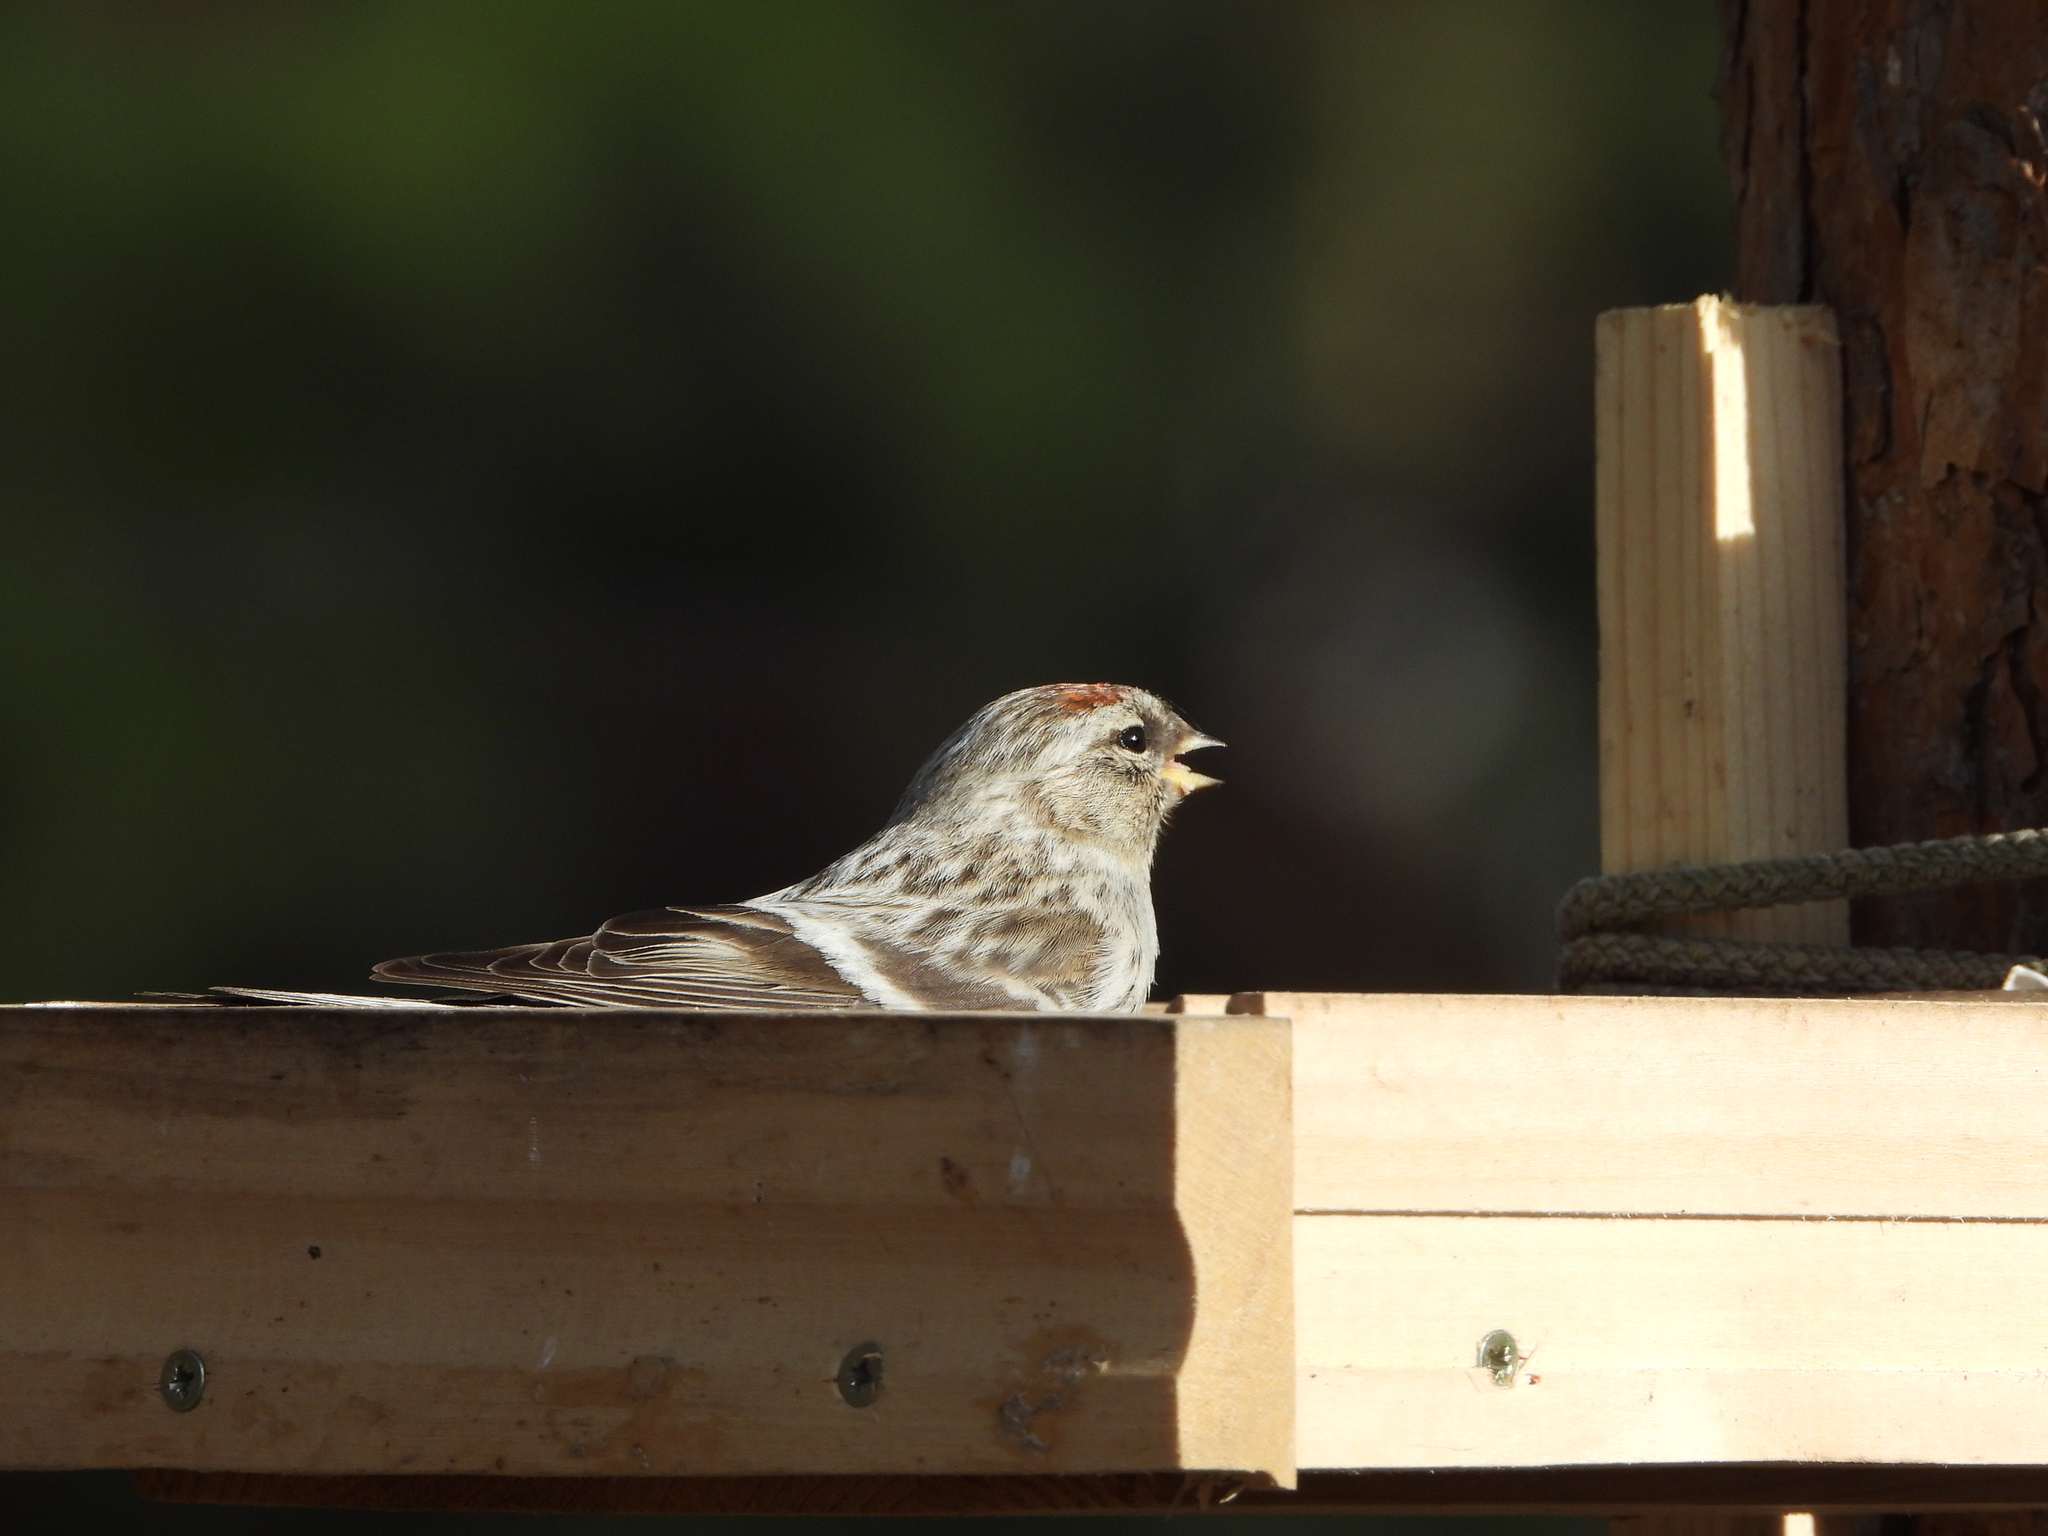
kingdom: Animalia
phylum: Chordata
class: Aves
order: Passeriformes
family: Fringillidae
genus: Acanthis
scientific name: Acanthis flammea
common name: Common redpoll
